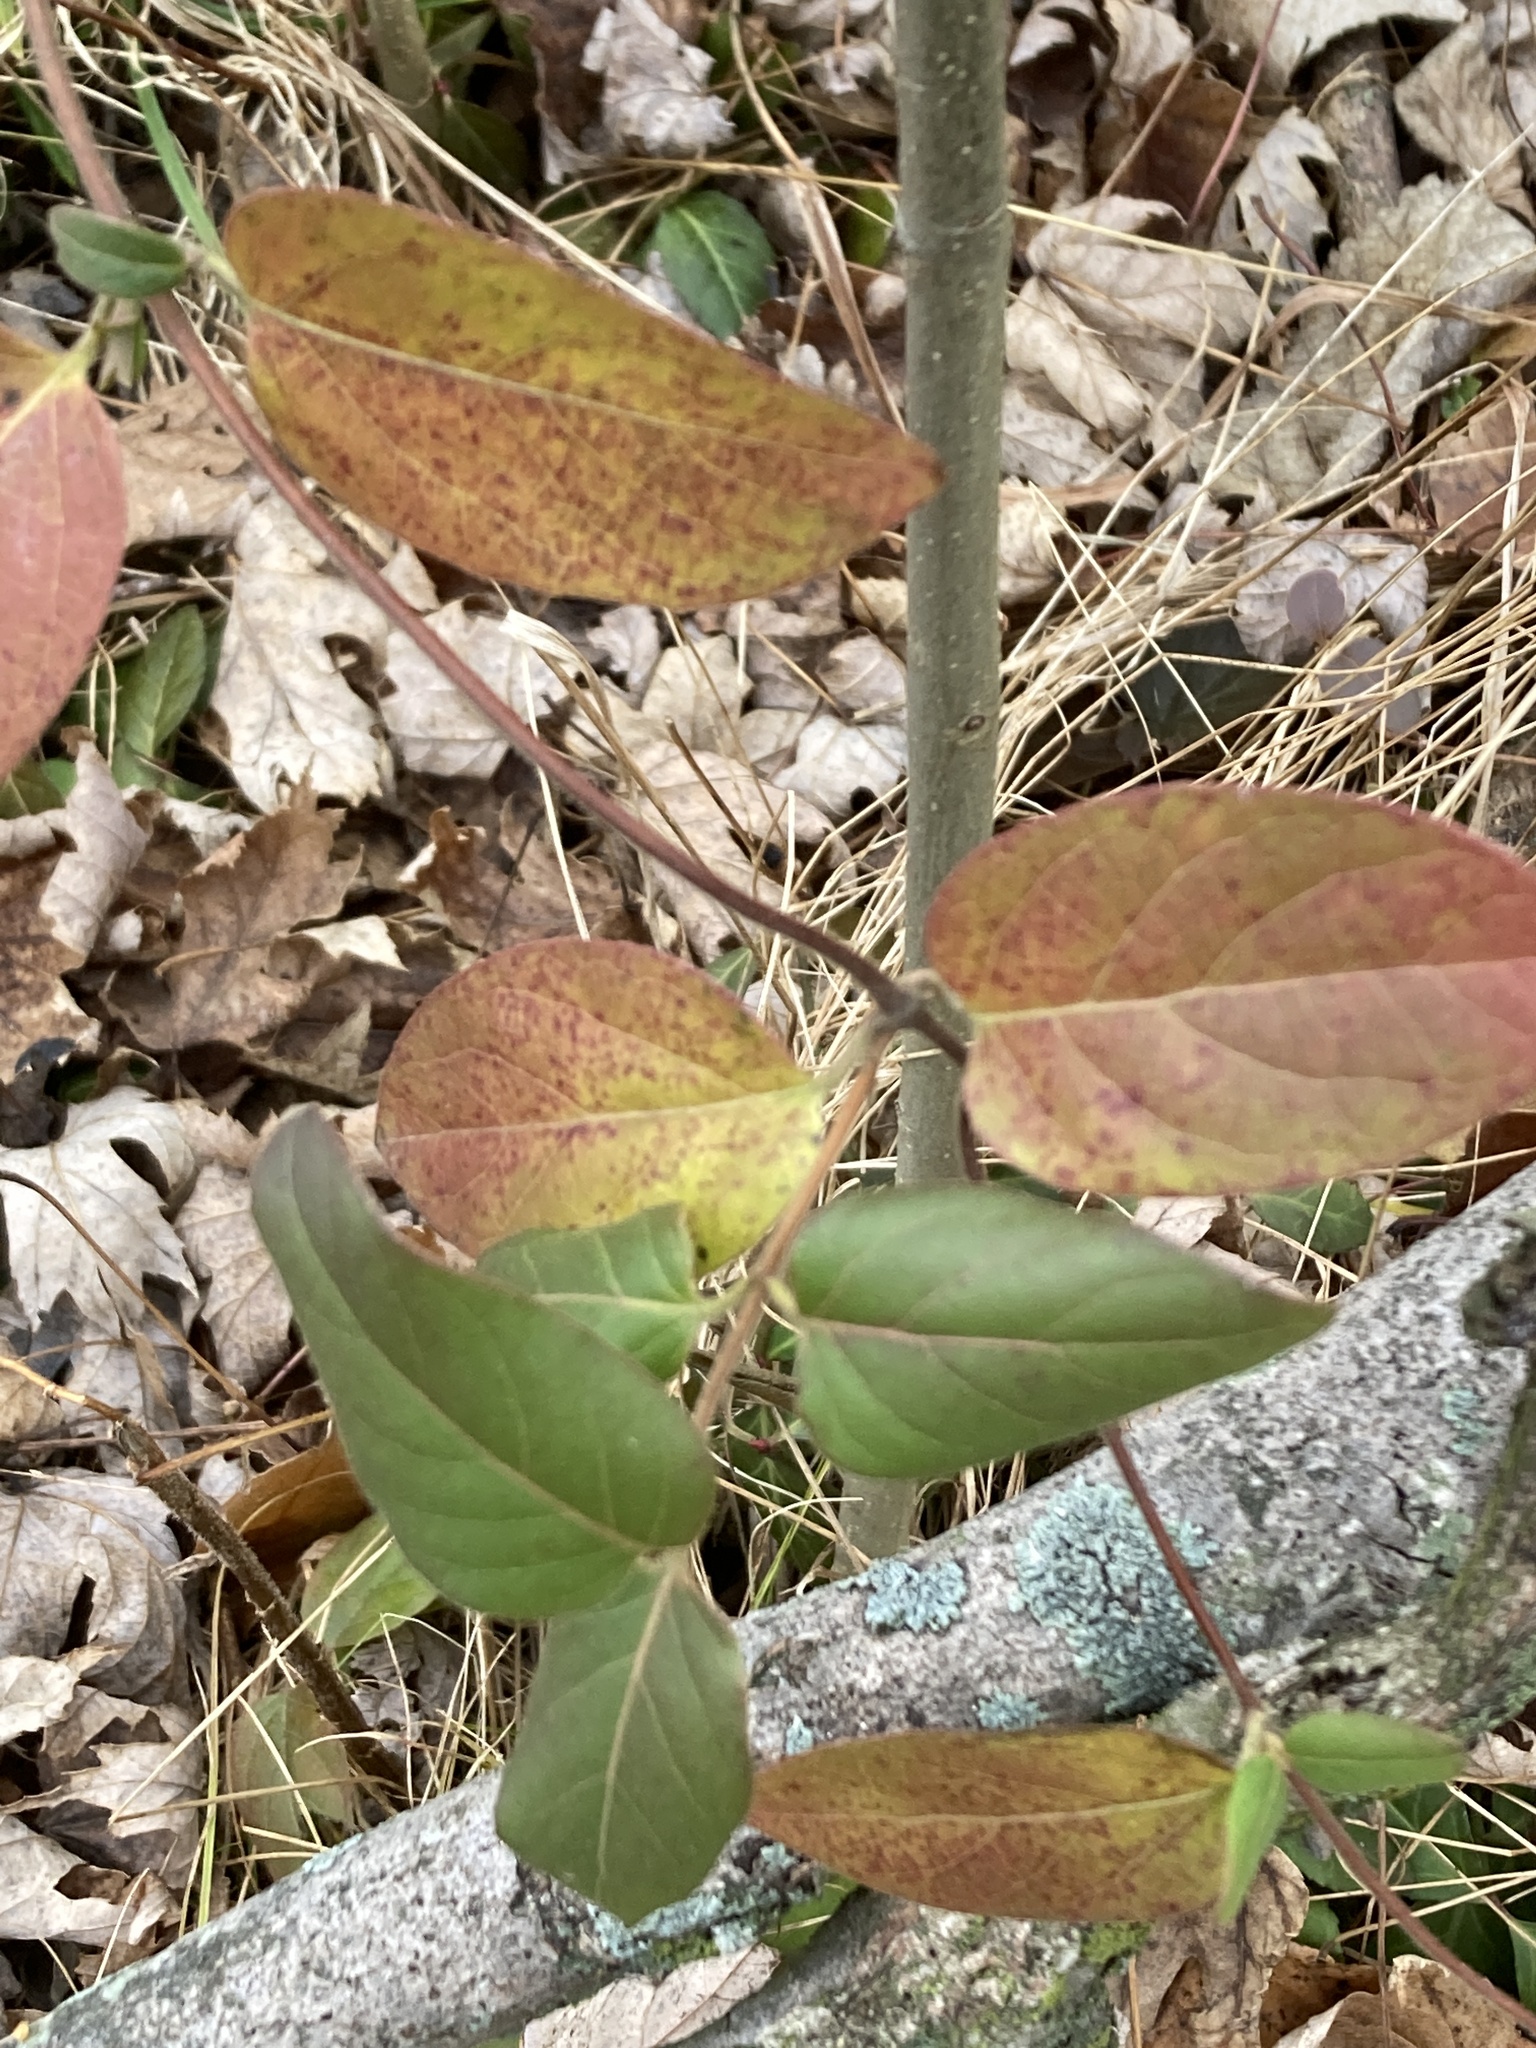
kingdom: Plantae
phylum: Tracheophyta
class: Magnoliopsida
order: Dipsacales
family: Caprifoliaceae
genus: Lonicera
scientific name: Lonicera japonica
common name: Japanese honeysuckle
